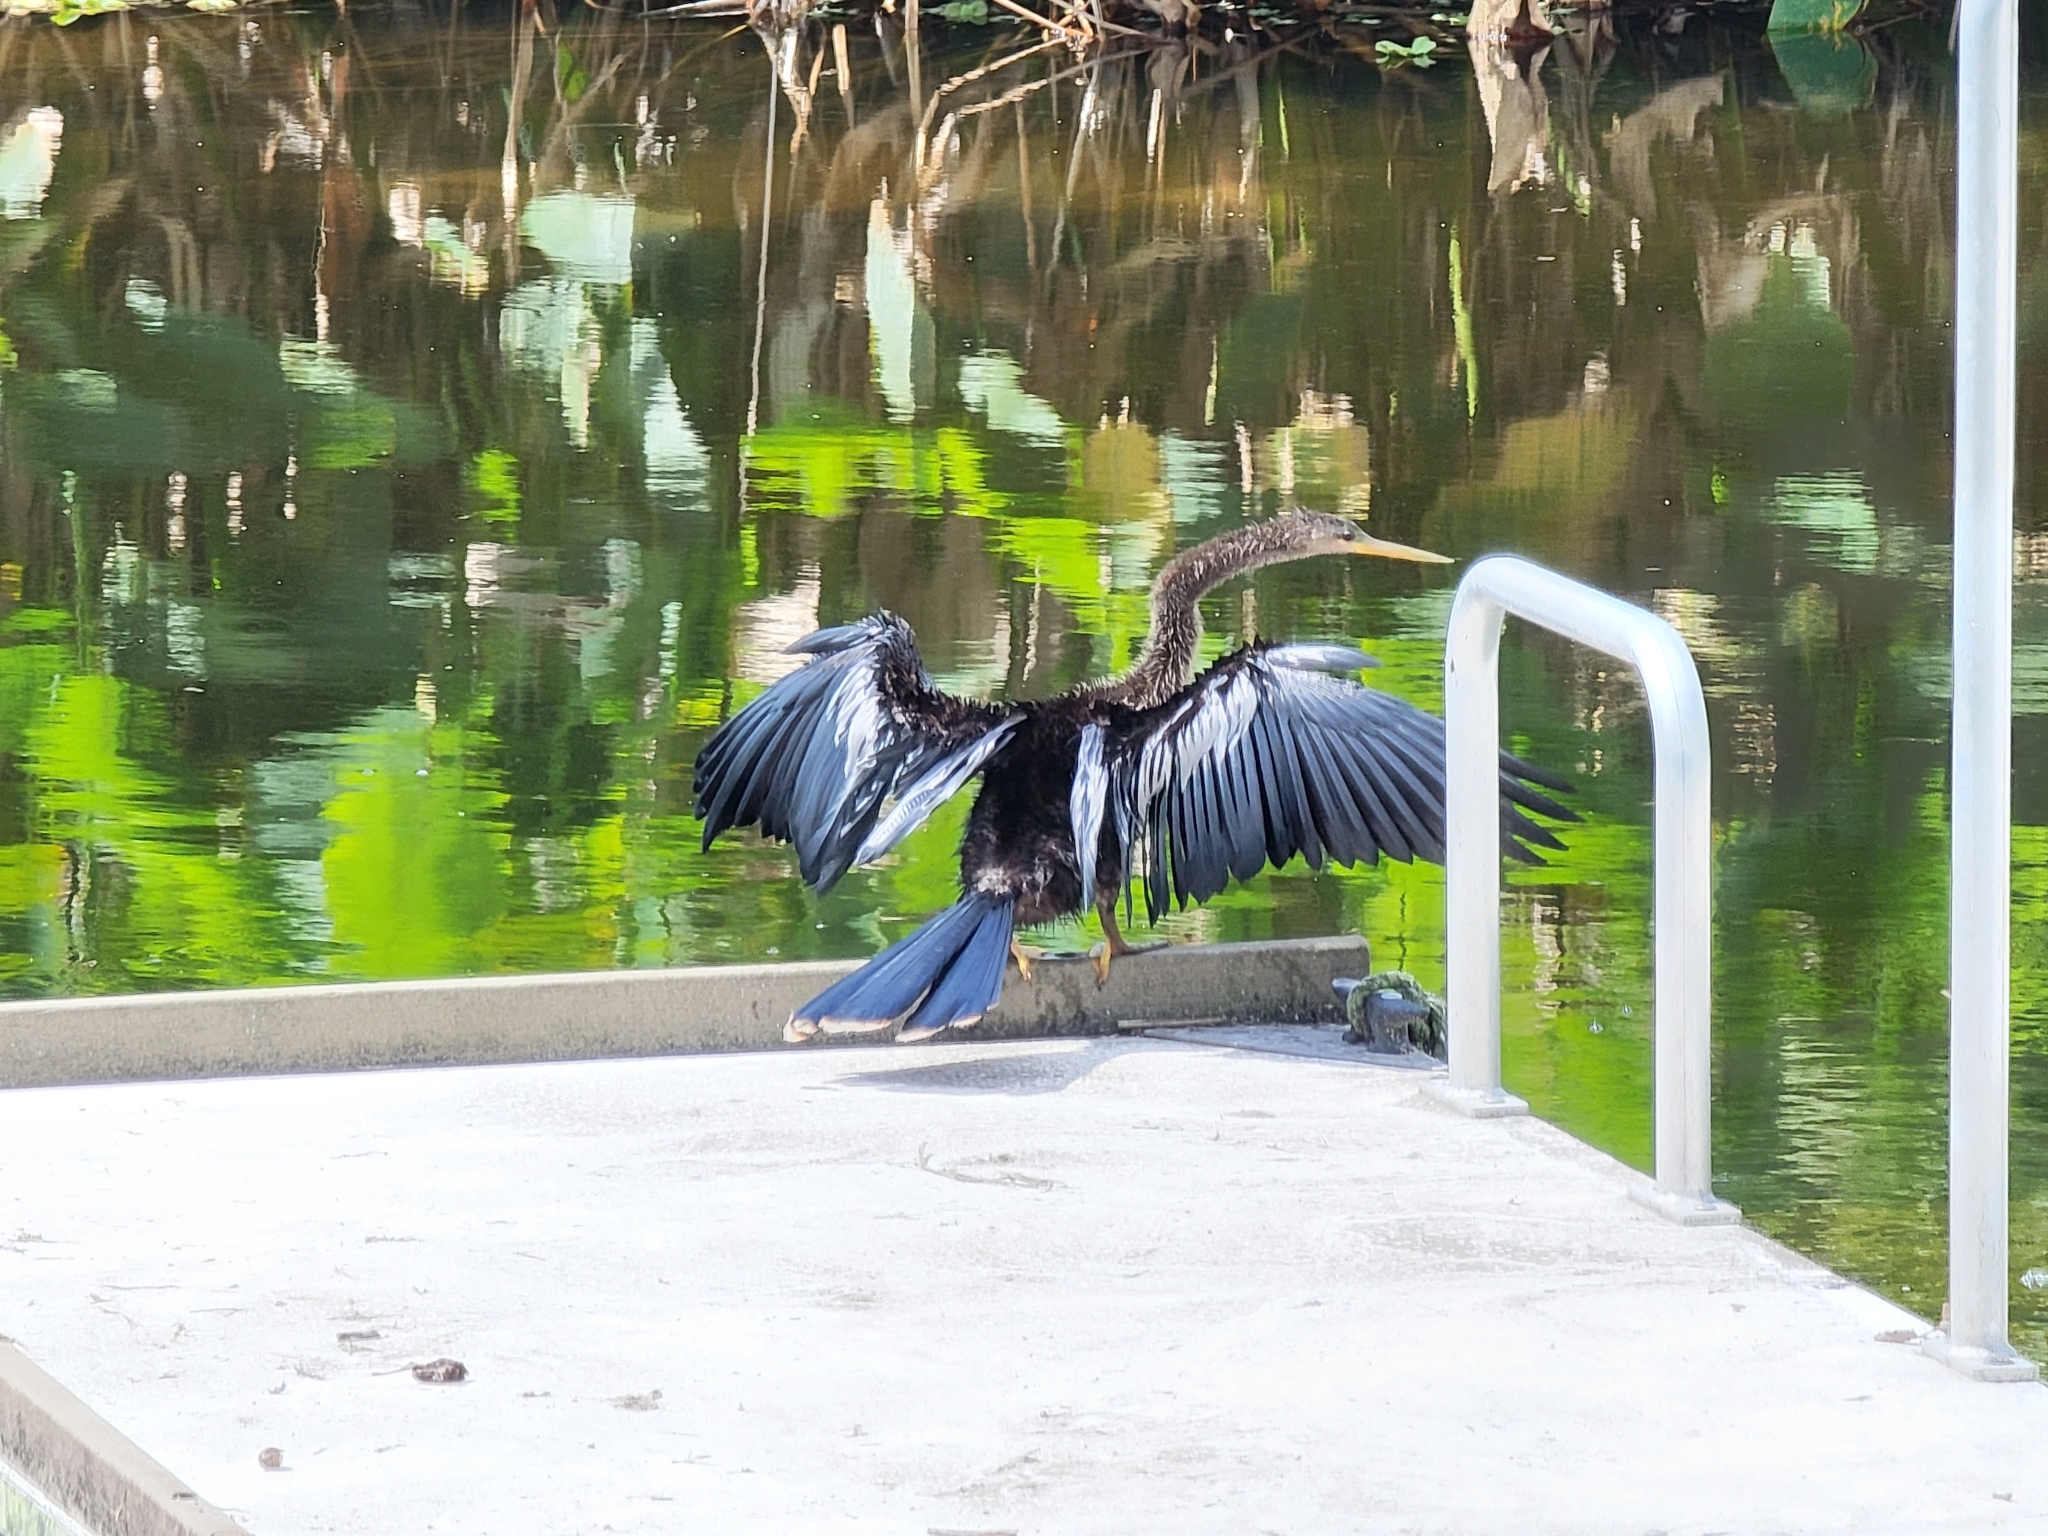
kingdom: Animalia
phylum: Chordata
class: Aves
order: Suliformes
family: Anhingidae
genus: Anhinga
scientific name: Anhinga anhinga
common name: Anhinga
